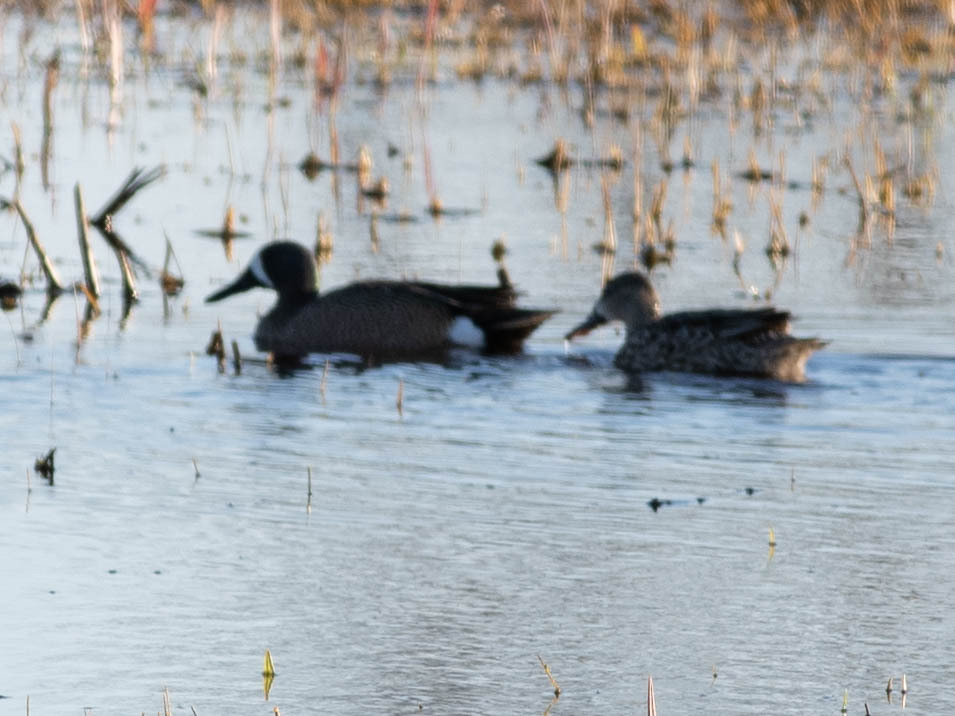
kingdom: Animalia
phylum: Chordata
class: Aves
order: Anseriformes
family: Anatidae
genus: Spatula
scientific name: Spatula discors
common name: Blue-winged teal
